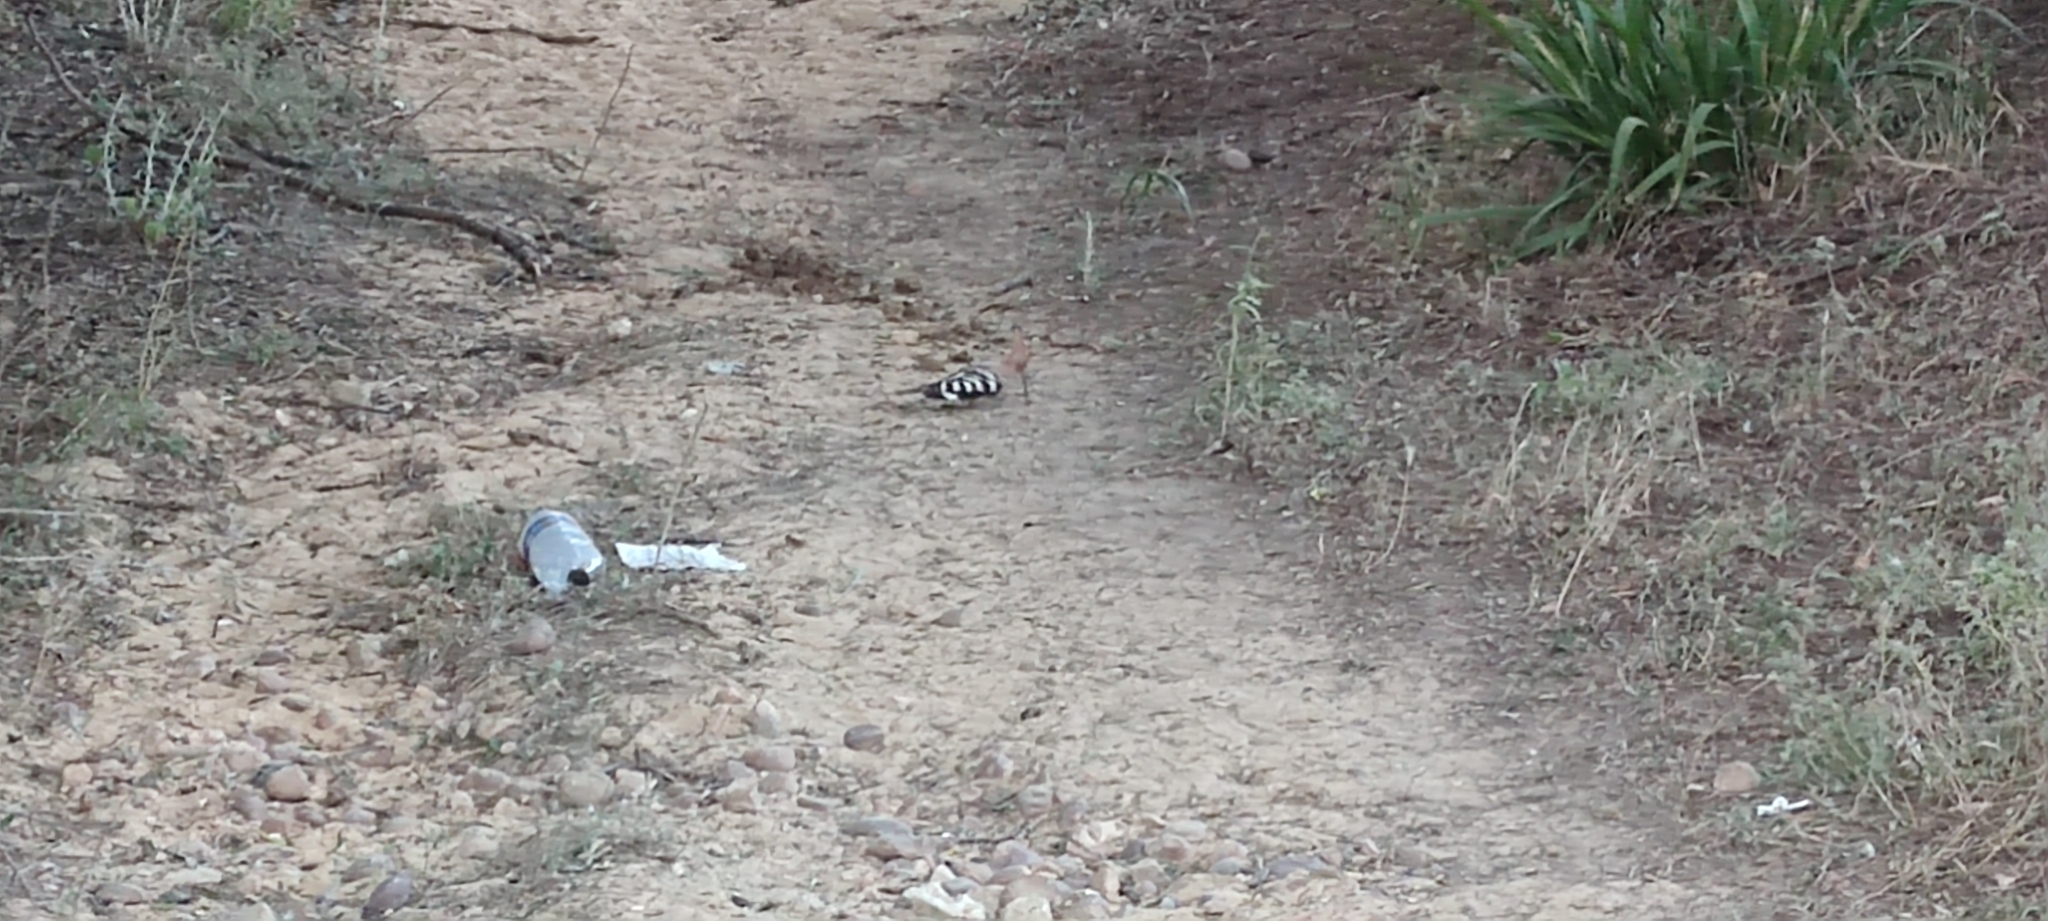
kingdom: Animalia
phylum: Chordata
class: Aves
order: Bucerotiformes
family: Upupidae
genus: Upupa
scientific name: Upupa epops
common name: Eurasian hoopoe
